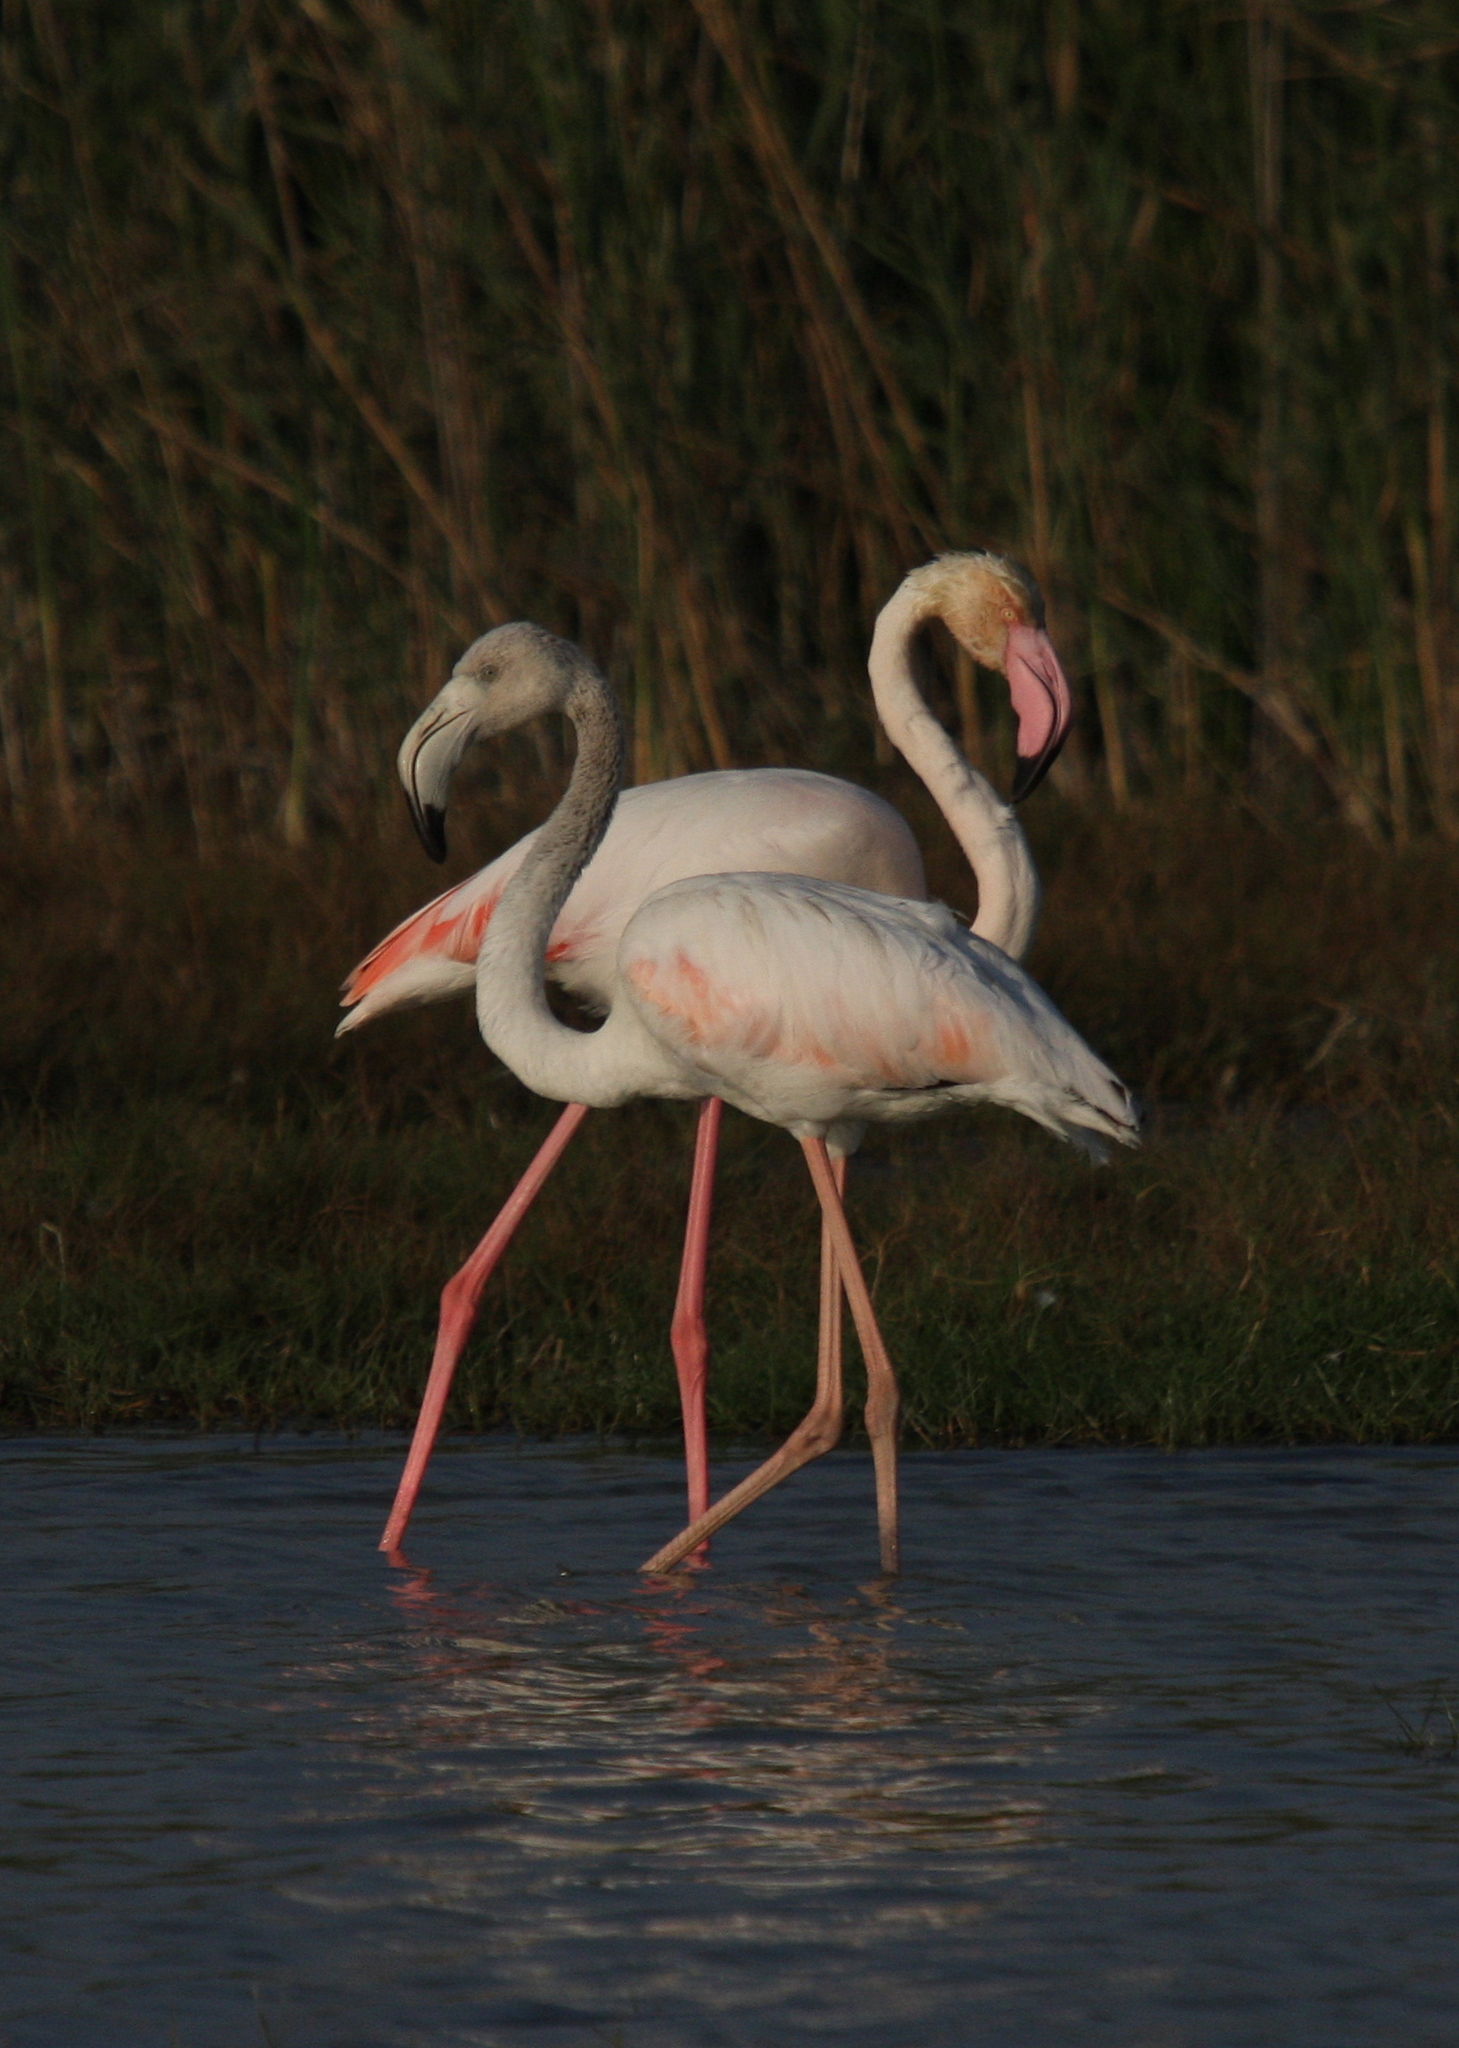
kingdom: Animalia
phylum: Chordata
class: Aves
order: Phoenicopteriformes
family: Phoenicopteridae
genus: Phoenicopterus
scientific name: Phoenicopterus roseus
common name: Greater flamingo
